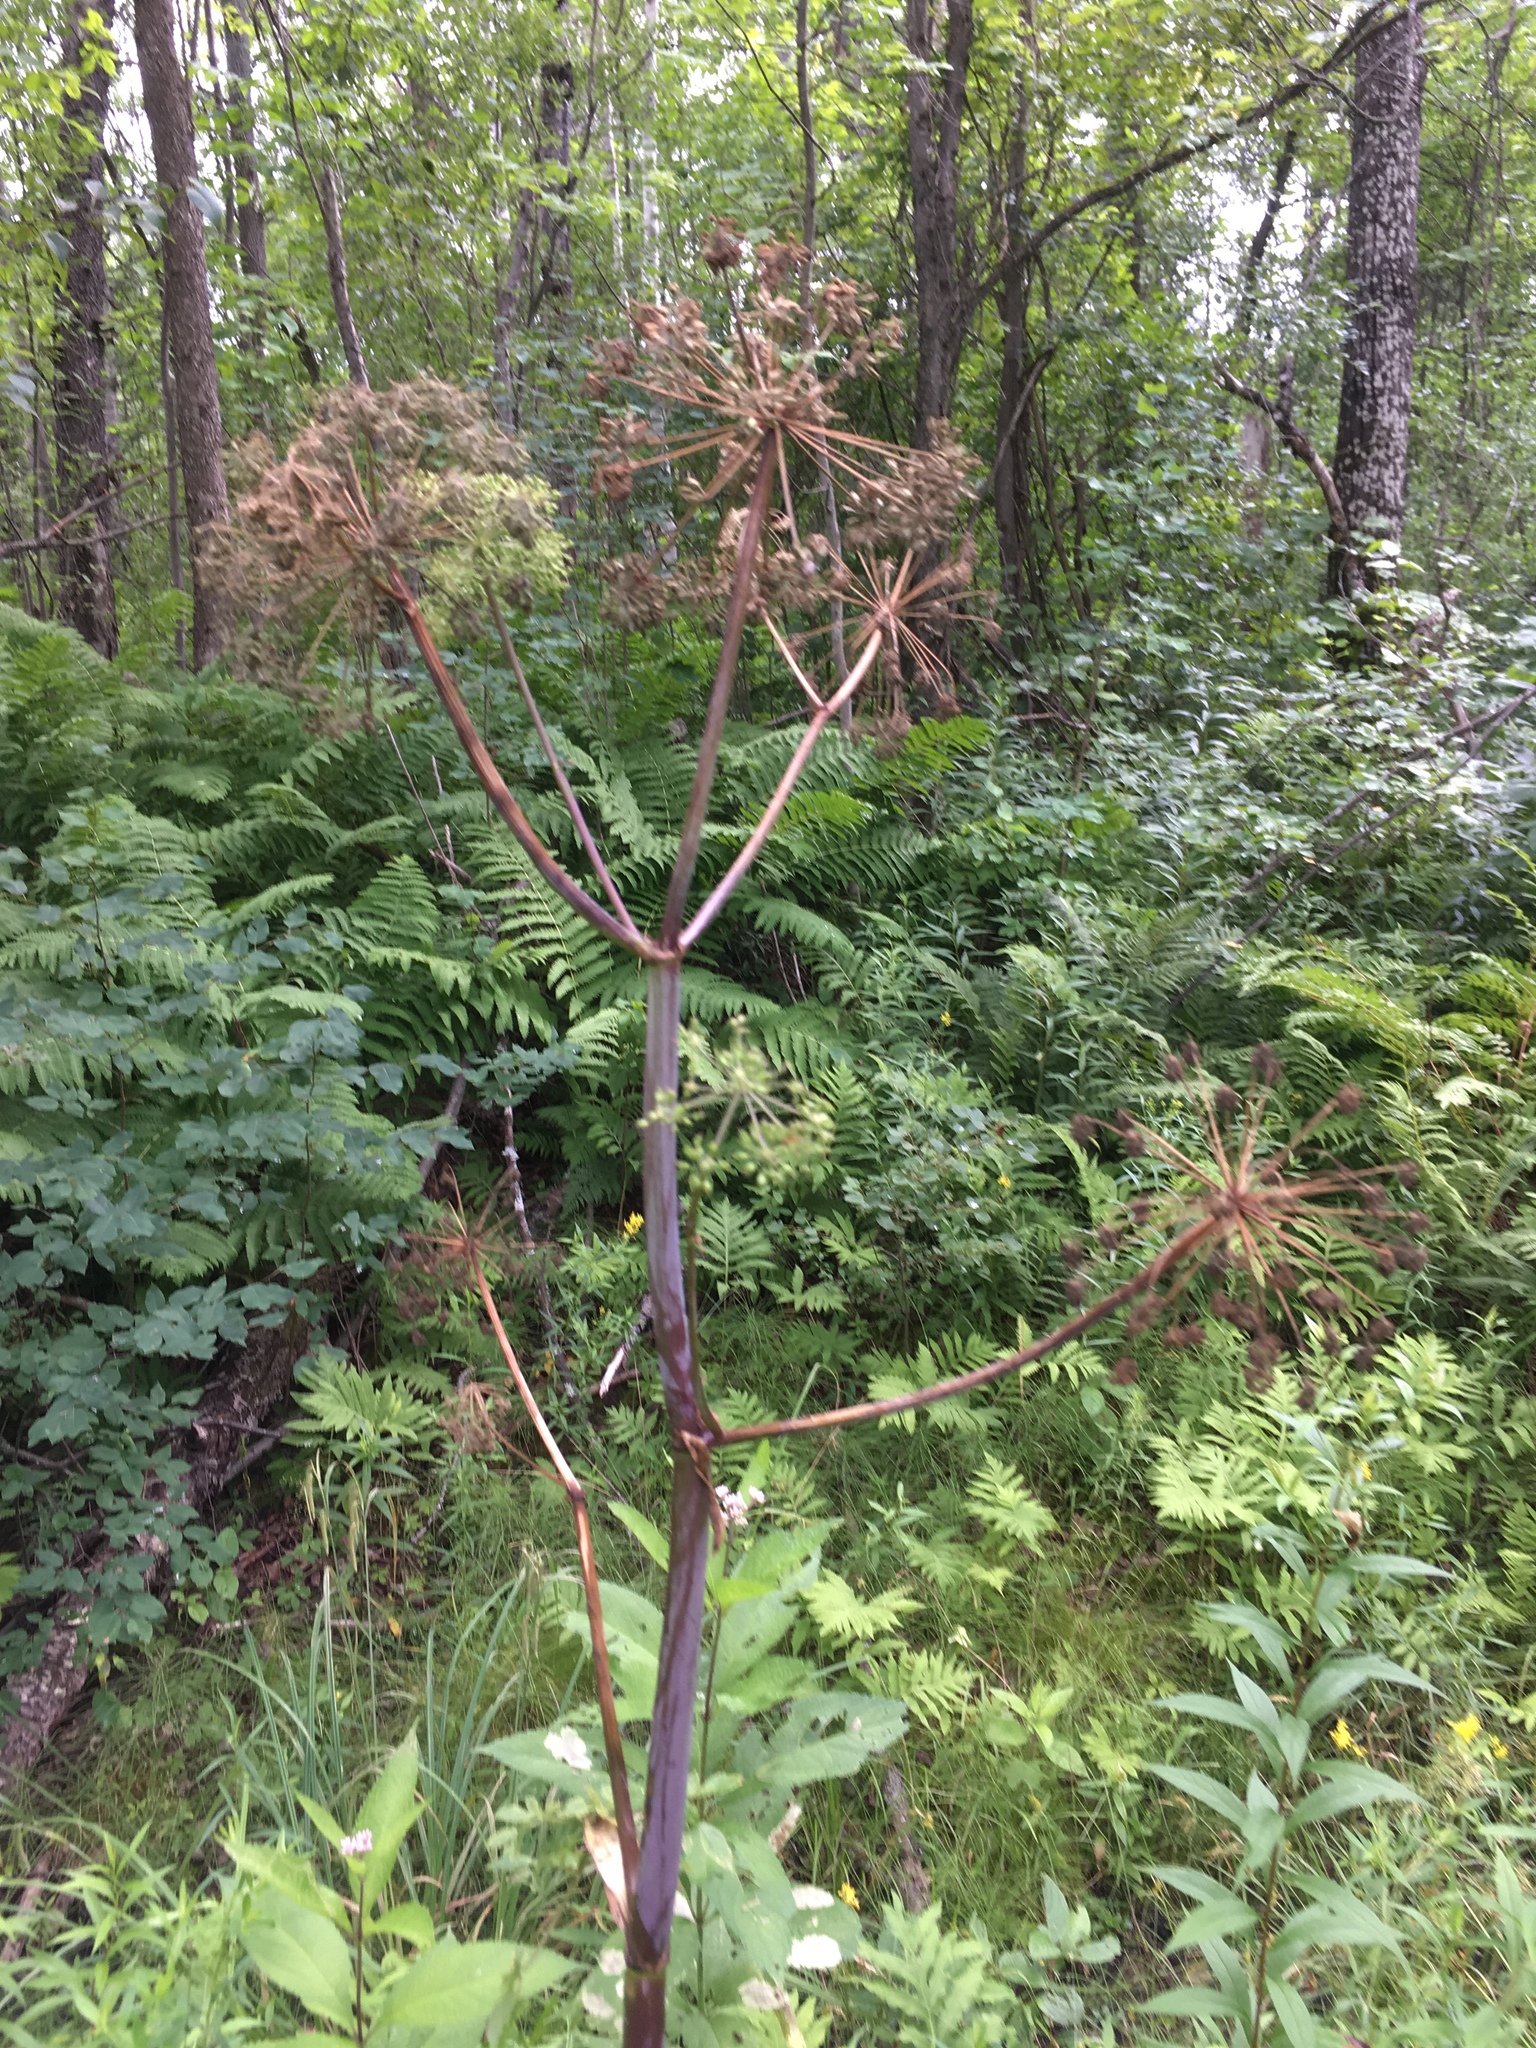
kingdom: Plantae
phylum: Tracheophyta
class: Magnoliopsida
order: Apiales
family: Apiaceae
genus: Angelica
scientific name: Angelica atropurpurea
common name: Great angelica
